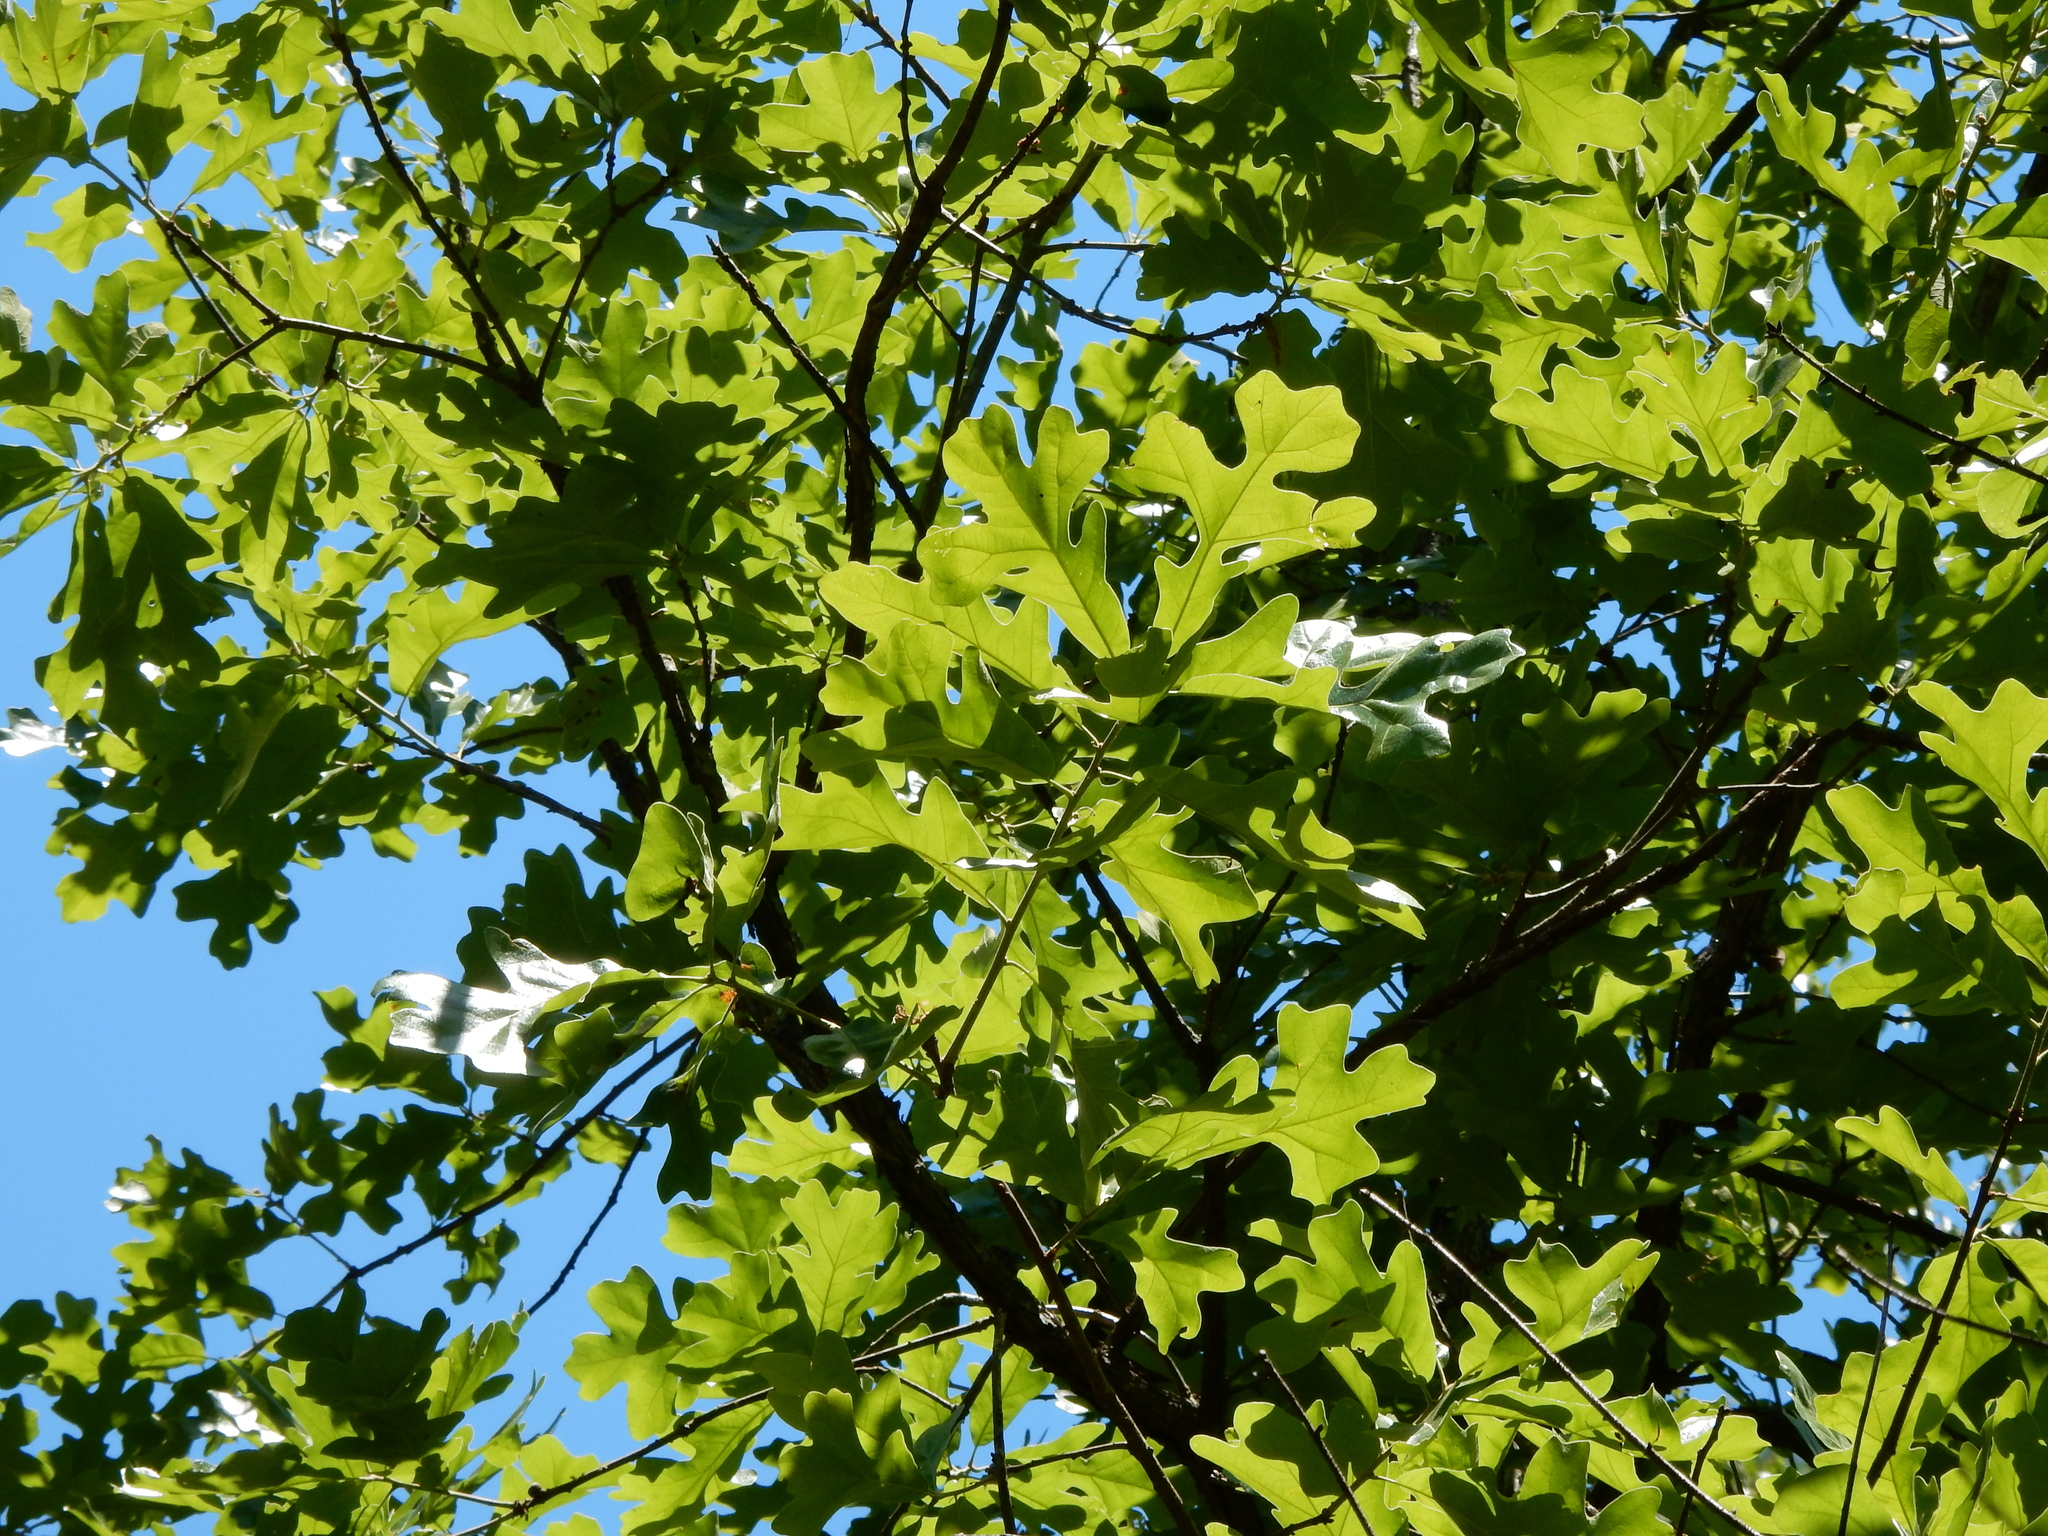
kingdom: Plantae
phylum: Tracheophyta
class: Magnoliopsida
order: Fagales
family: Fagaceae
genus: Quercus
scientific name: Quercus stellata
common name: Post oak
